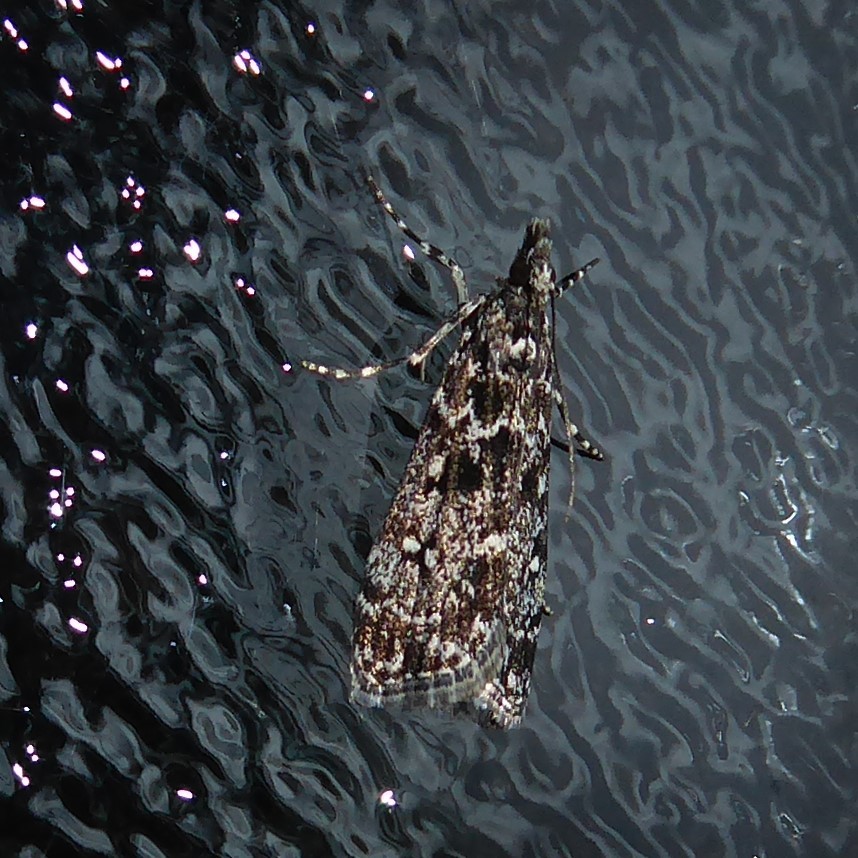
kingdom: Animalia
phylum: Arthropoda
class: Insecta
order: Lepidoptera
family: Crambidae
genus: Eudonia
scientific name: Eudonia philerga
